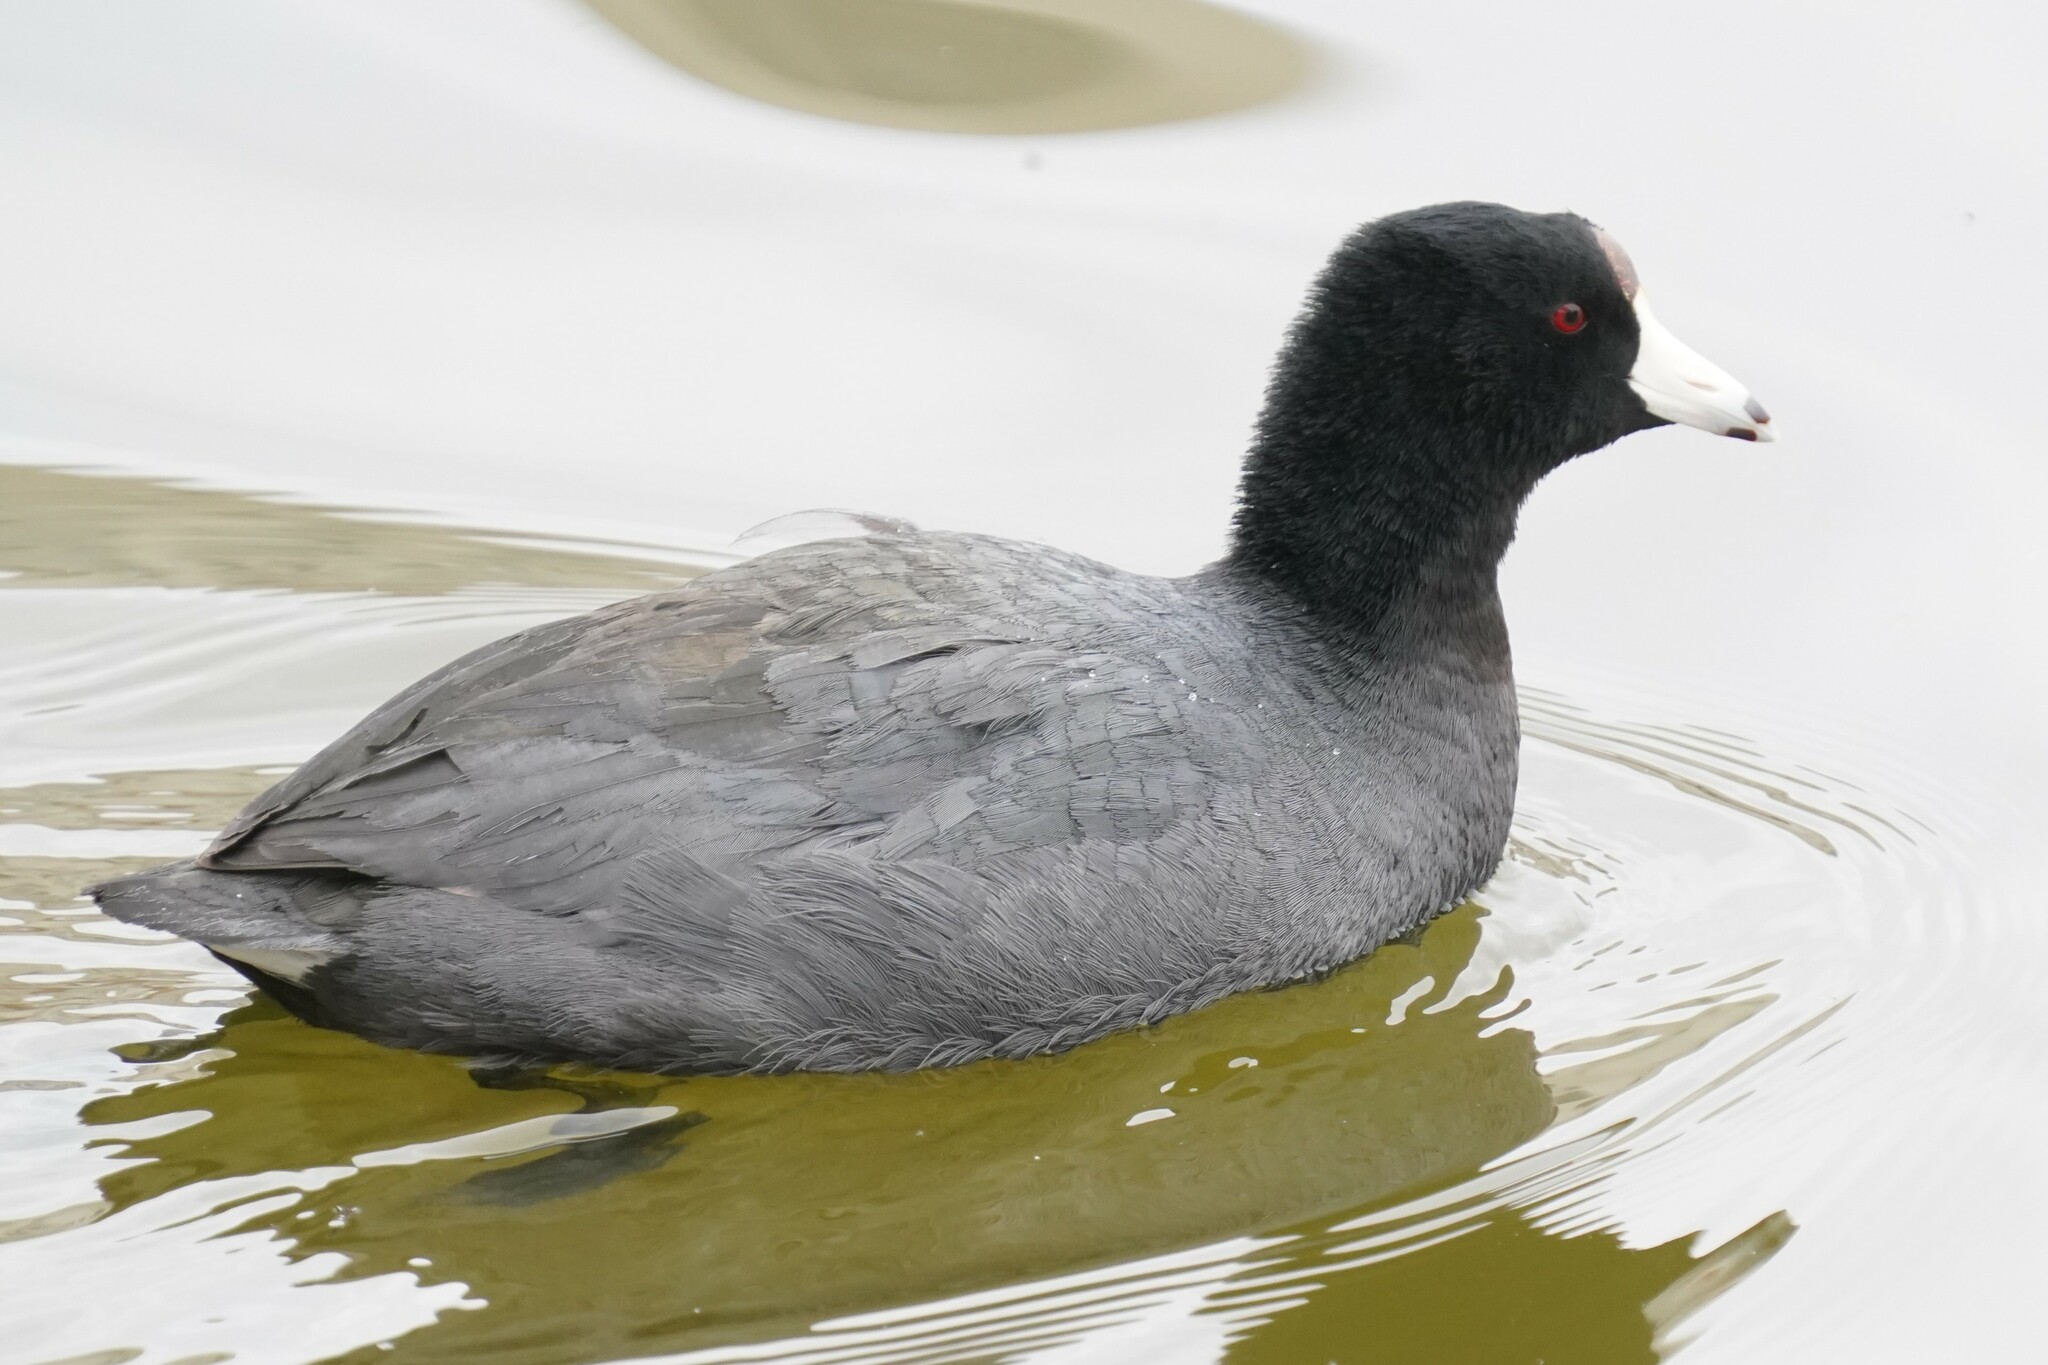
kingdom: Animalia
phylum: Chordata
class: Aves
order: Gruiformes
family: Rallidae
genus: Fulica
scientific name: Fulica americana
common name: American coot
